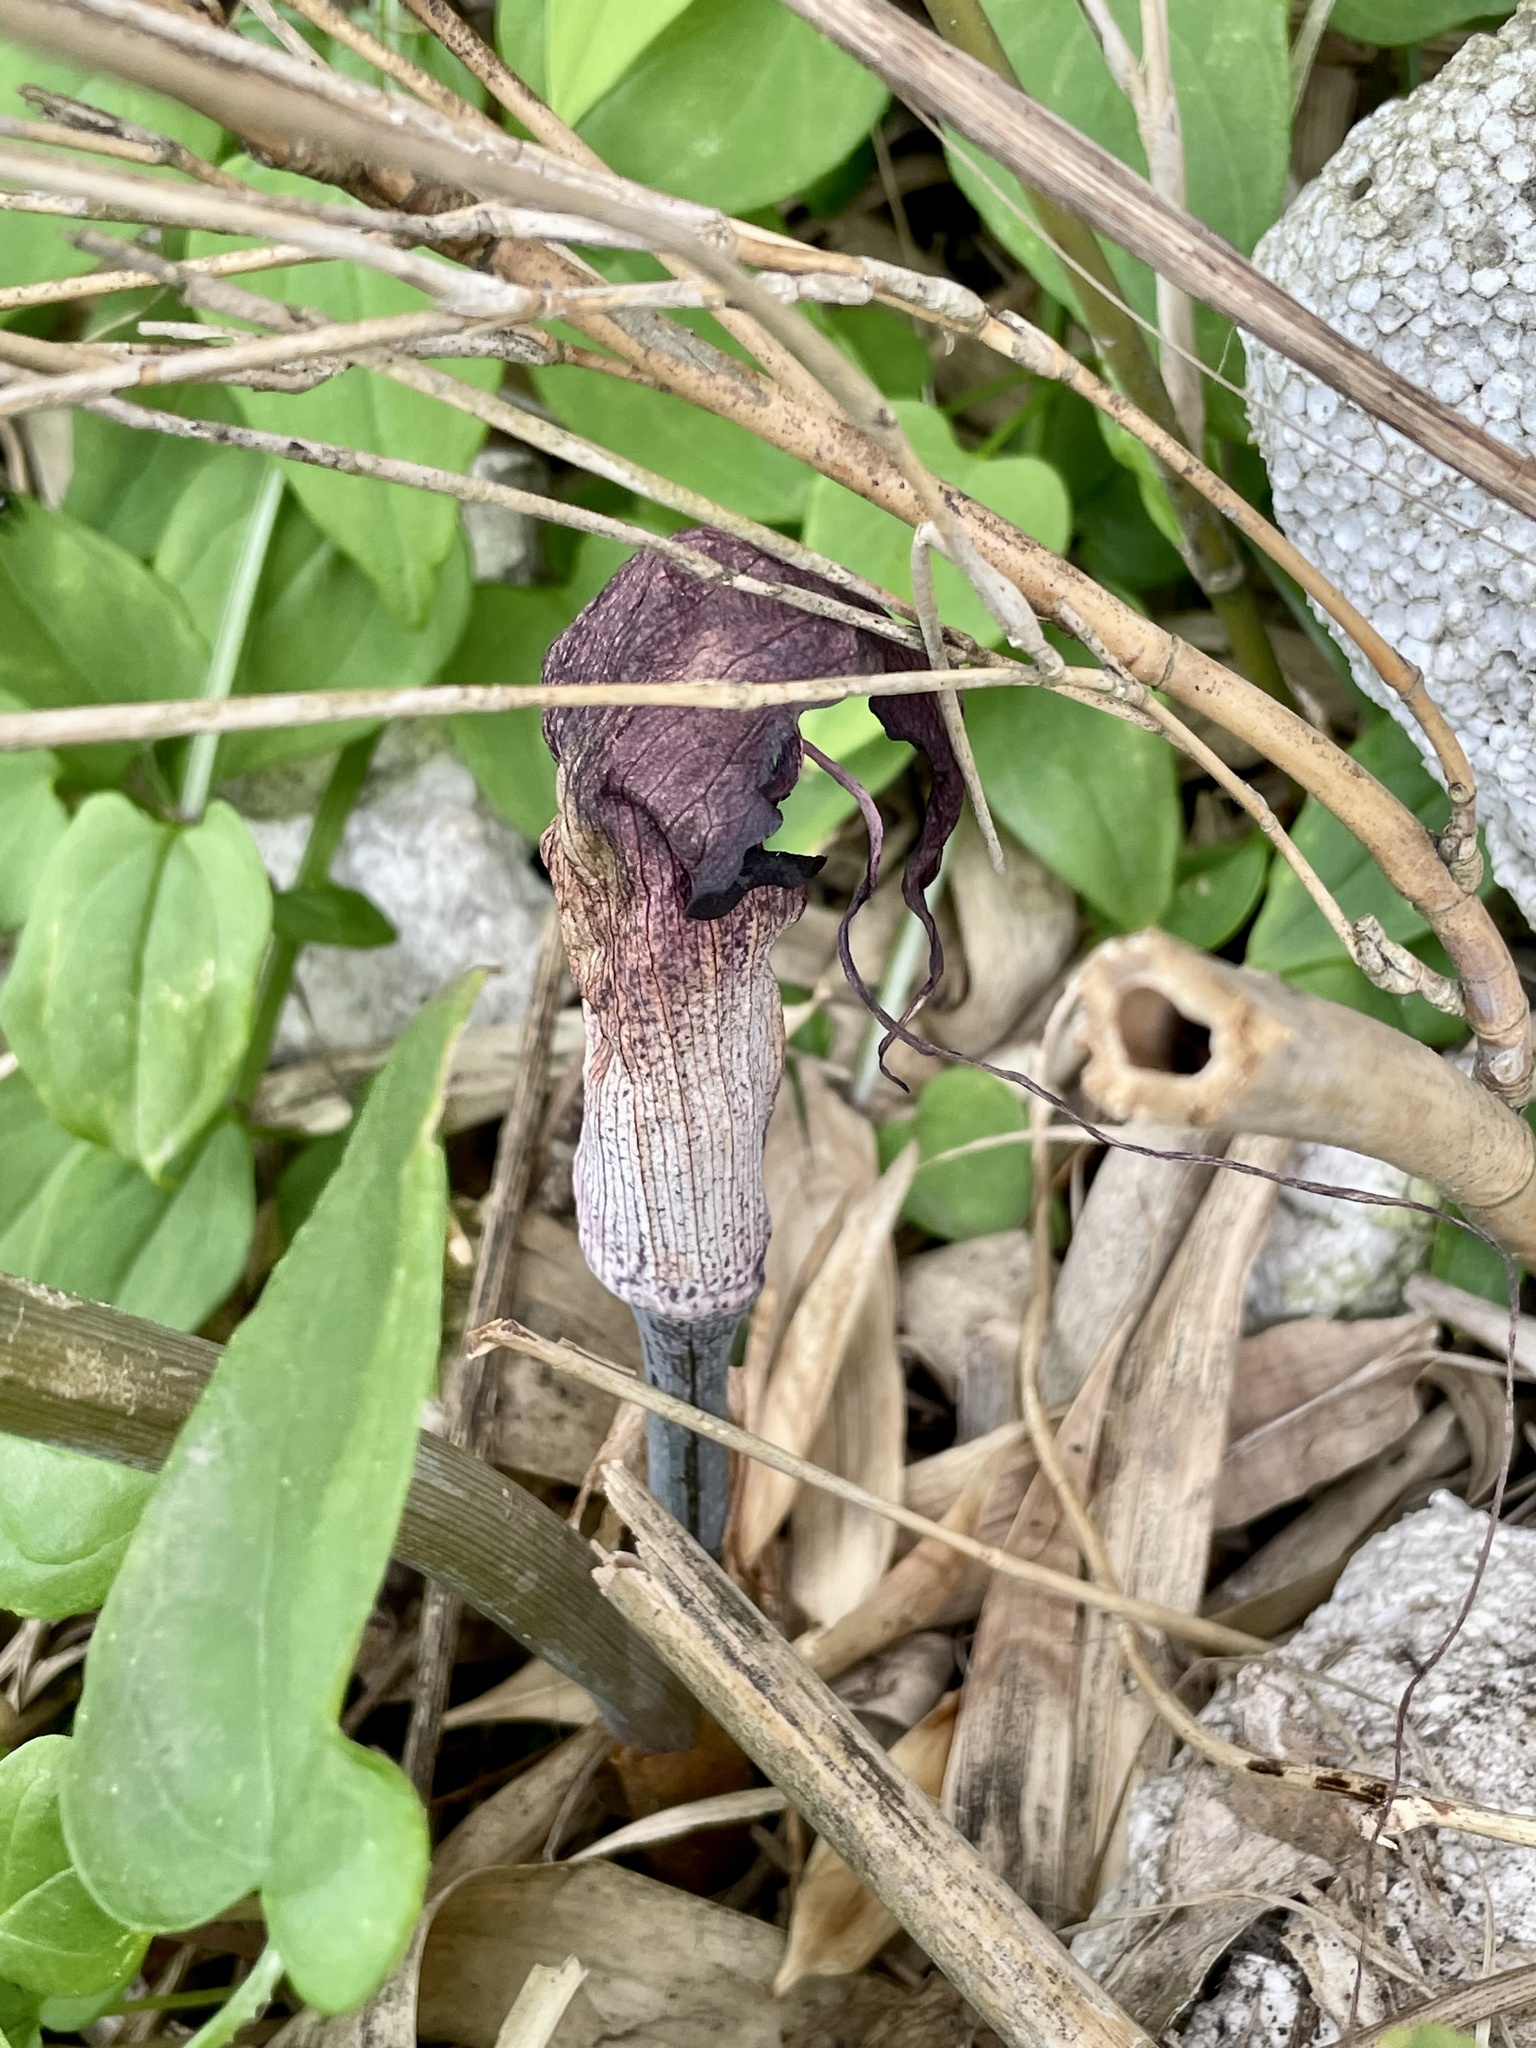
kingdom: Plantae
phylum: Tracheophyta
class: Liliopsida
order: Alismatales
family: Araceae
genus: Arisaema
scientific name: Arisaema thunbergii
